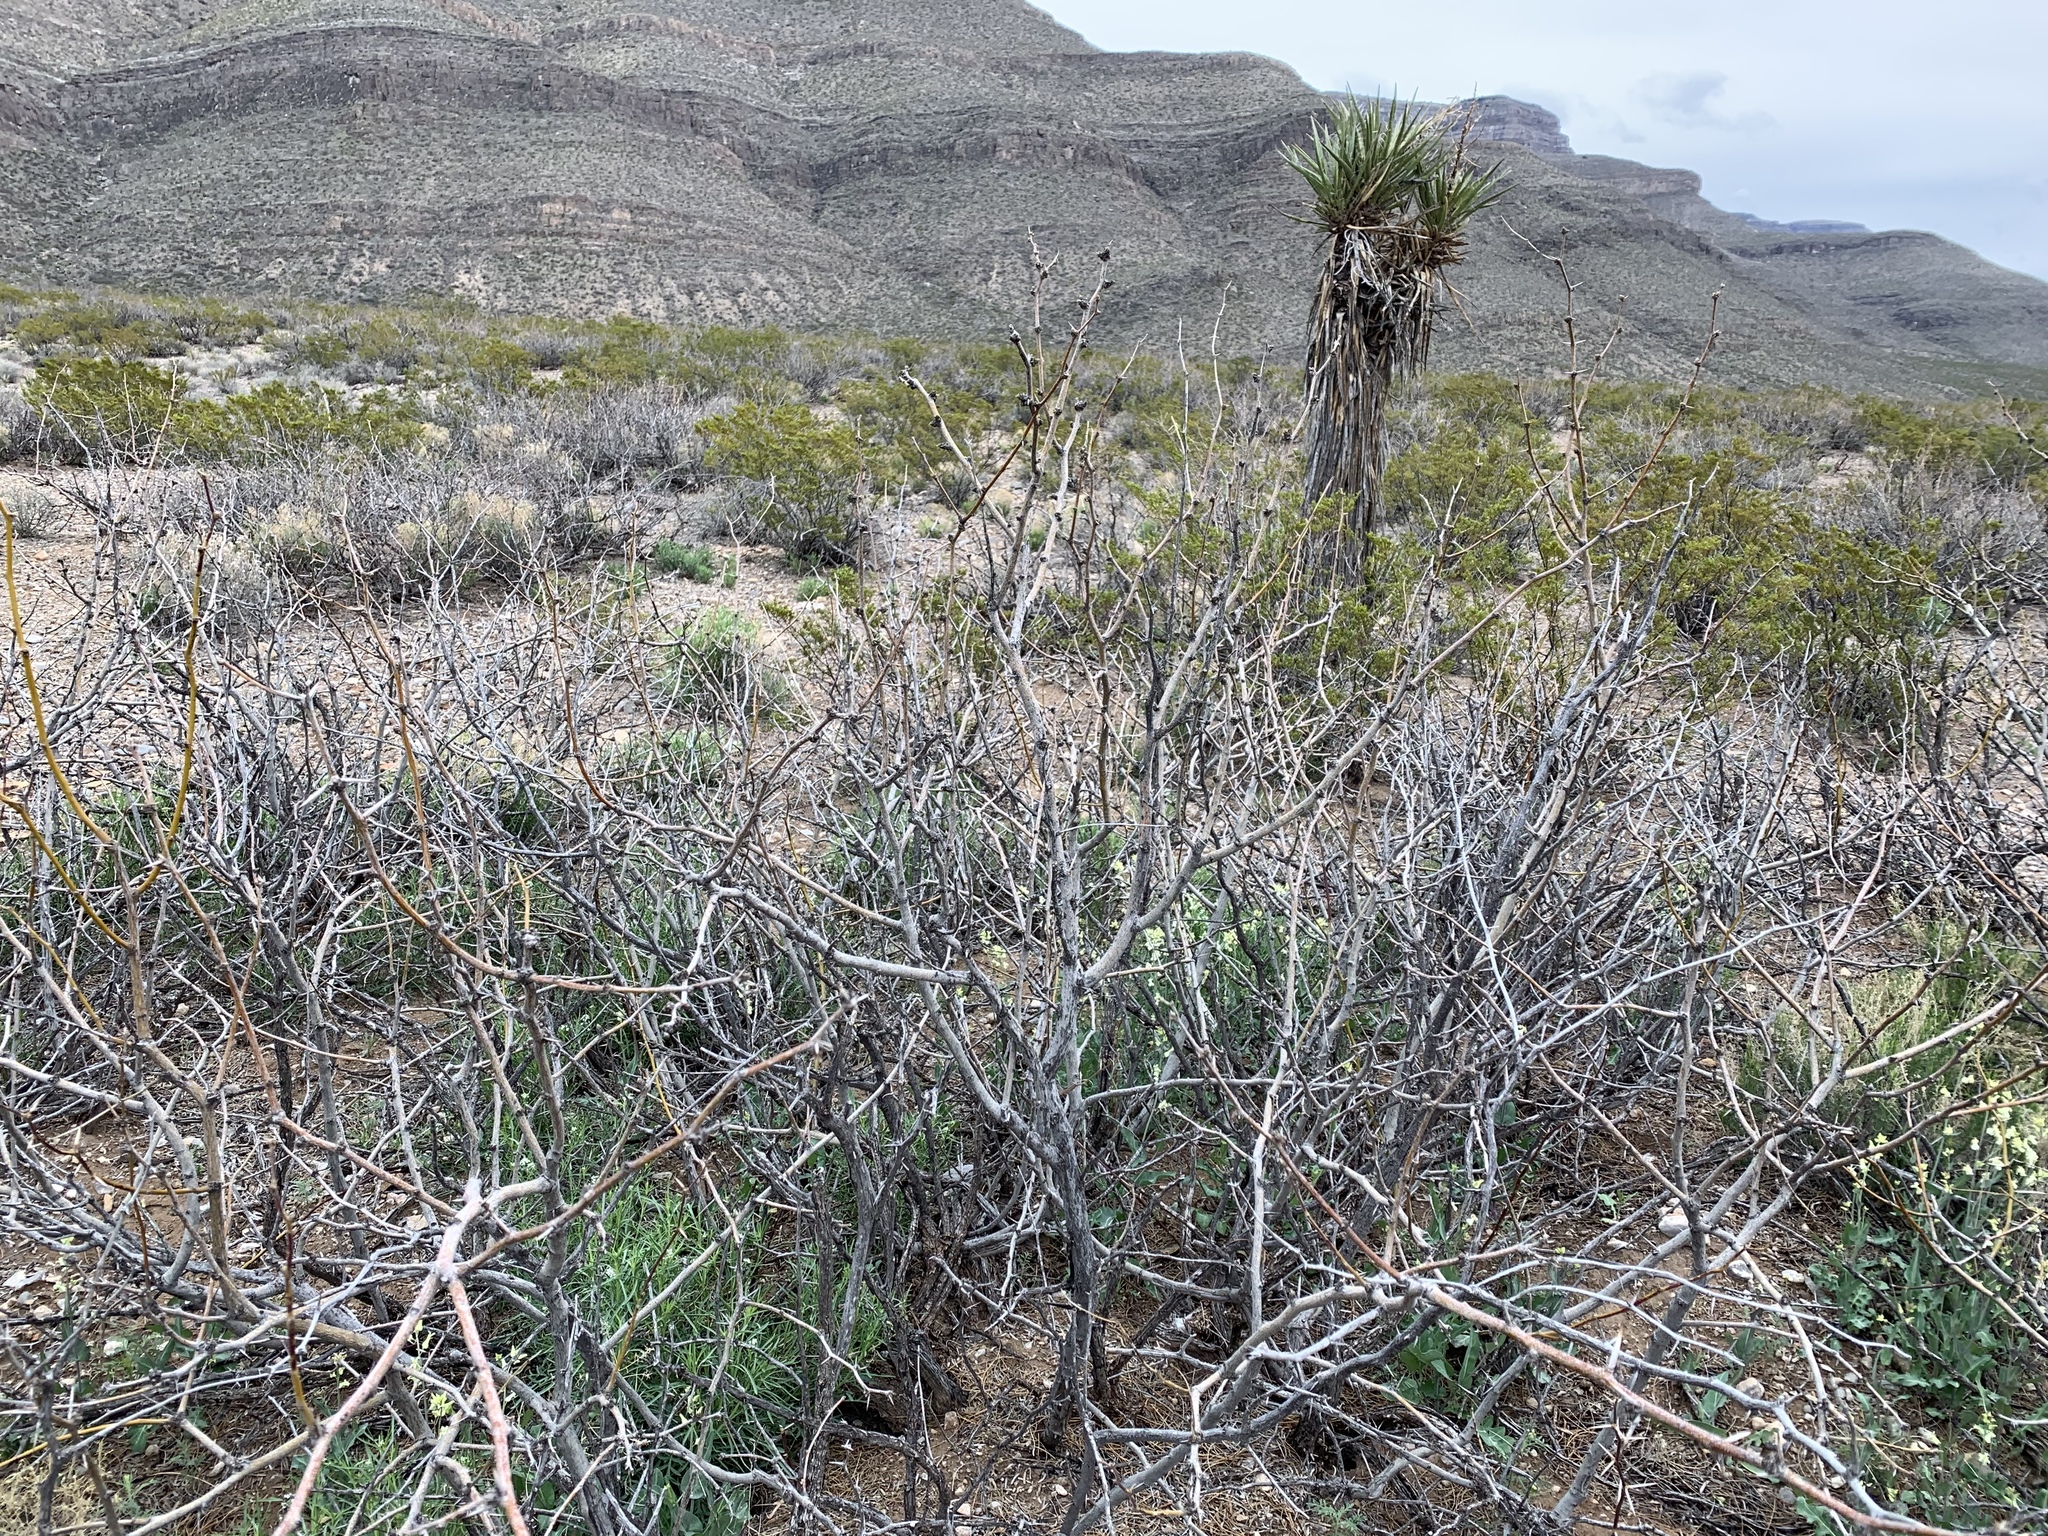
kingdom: Plantae
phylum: Tracheophyta
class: Magnoliopsida
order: Fabales
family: Fabaceae
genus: Prosopis
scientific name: Prosopis glandulosa
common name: Honey mesquite
